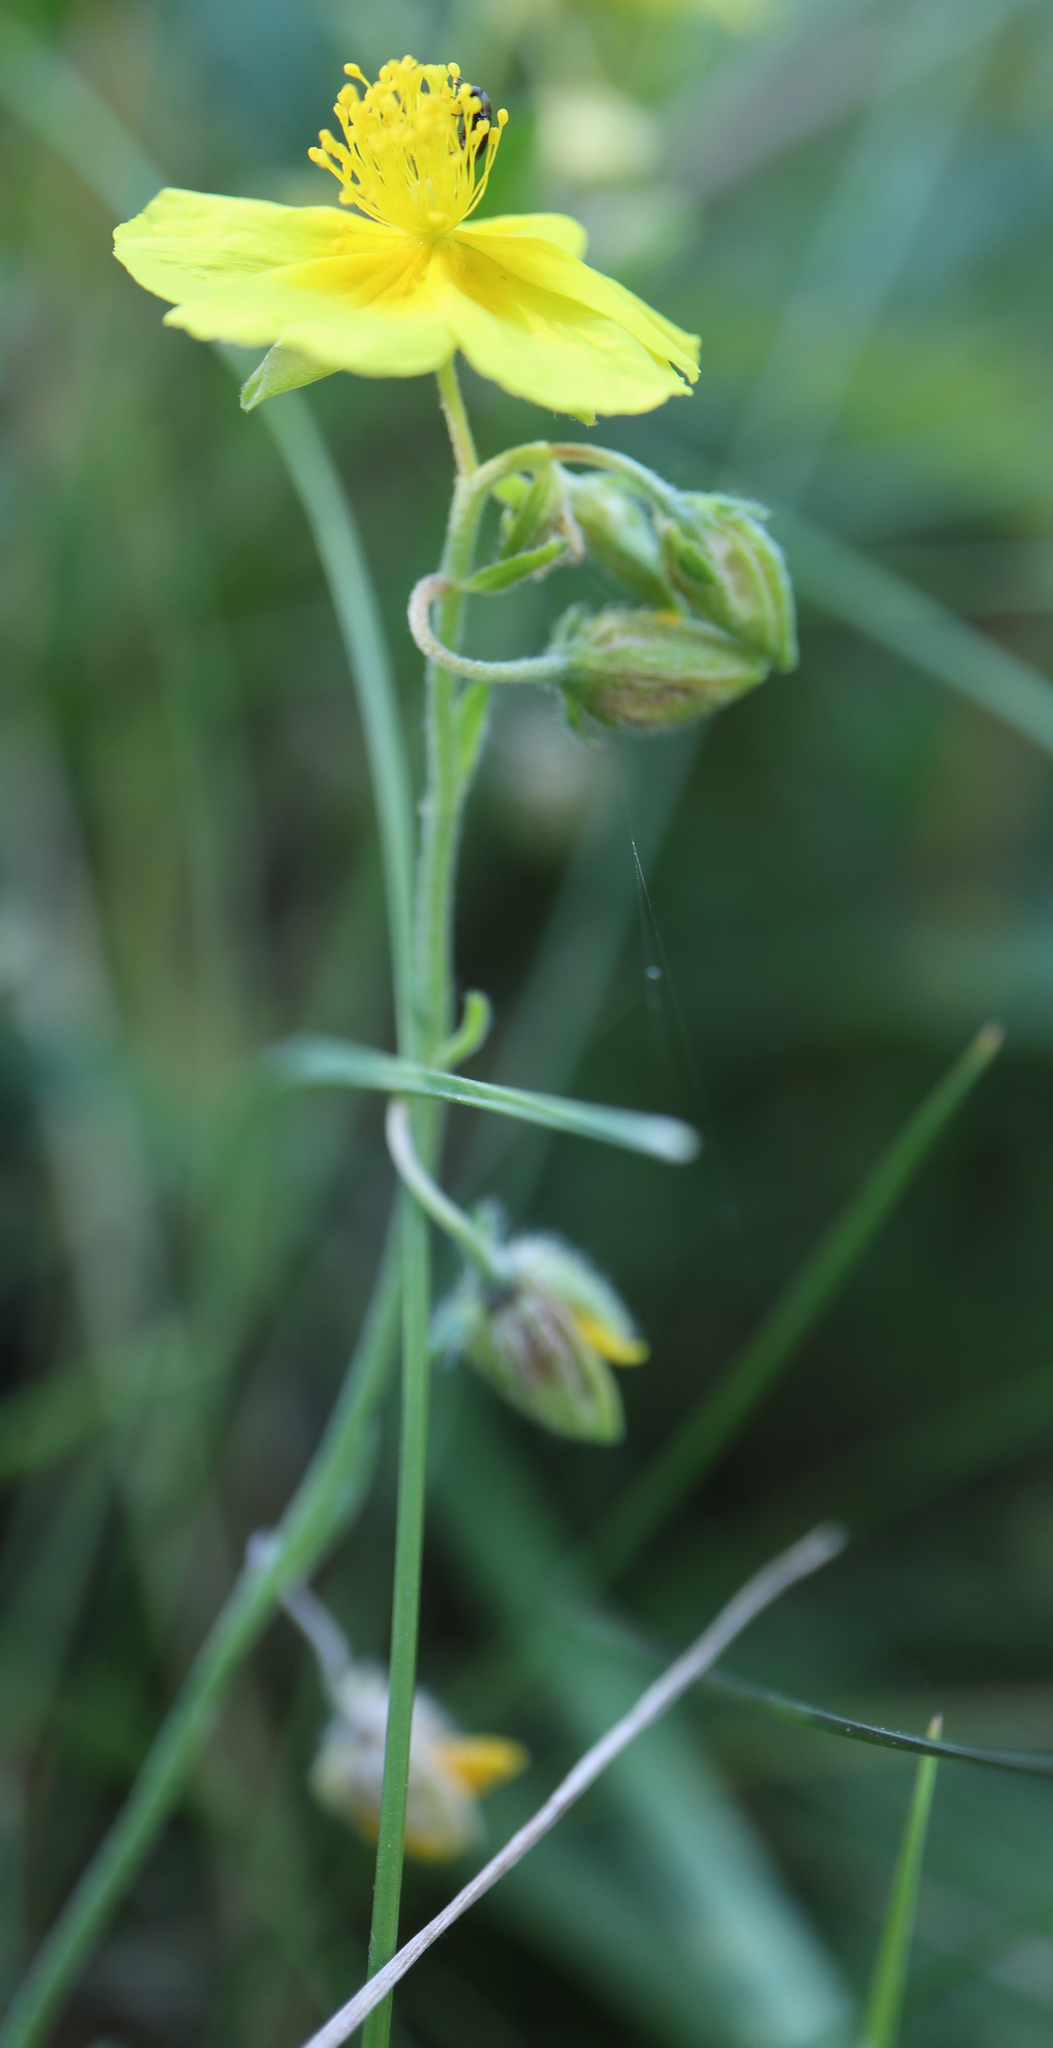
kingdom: Plantae
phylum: Tracheophyta
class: Magnoliopsida
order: Malvales
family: Cistaceae
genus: Helianthemum
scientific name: Helianthemum nummularium
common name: Common rock-rose
